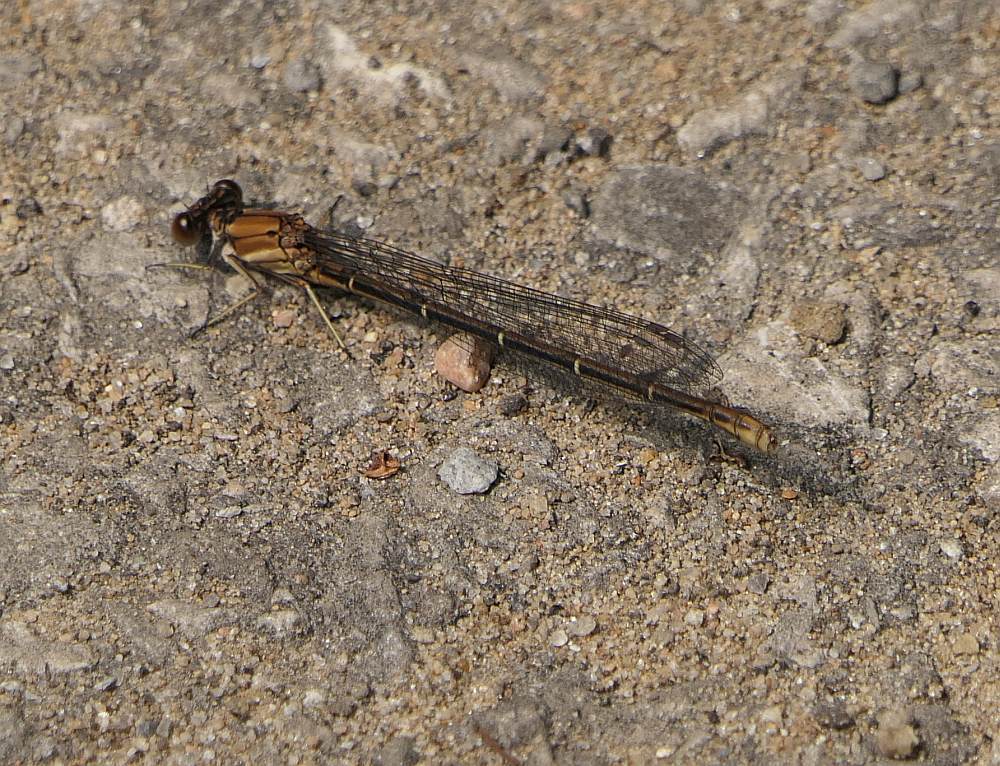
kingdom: Animalia
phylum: Arthropoda
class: Insecta
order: Odonata
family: Coenagrionidae
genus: Argia
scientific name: Argia moesta
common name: Powdered dancer
